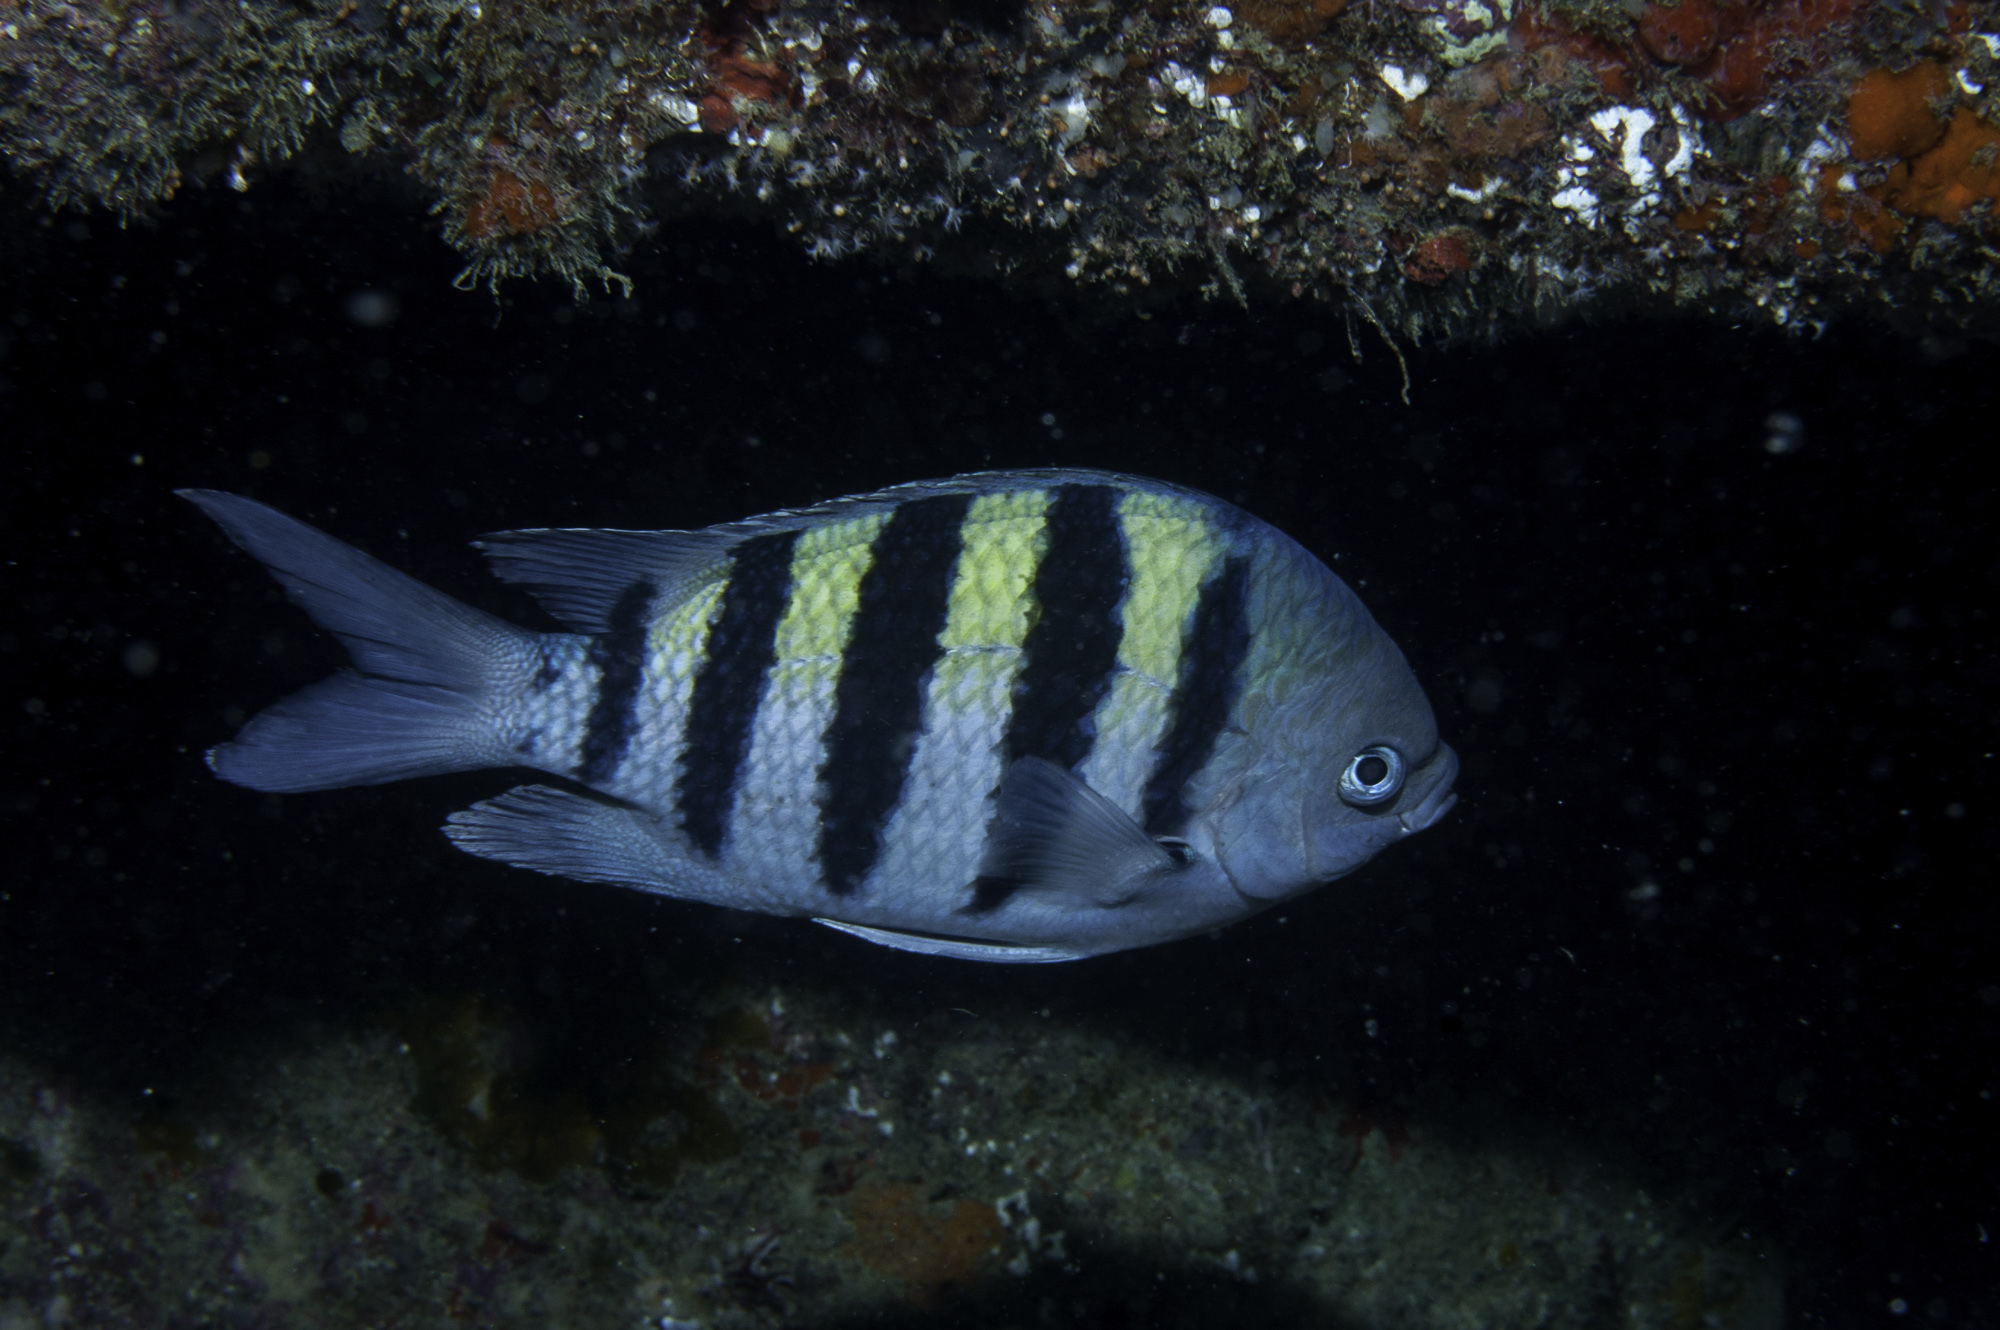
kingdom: Animalia
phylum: Chordata
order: Perciformes
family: Pomacentridae
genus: Abudefduf
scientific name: Abudefduf saxatilis
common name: Sergeant major
